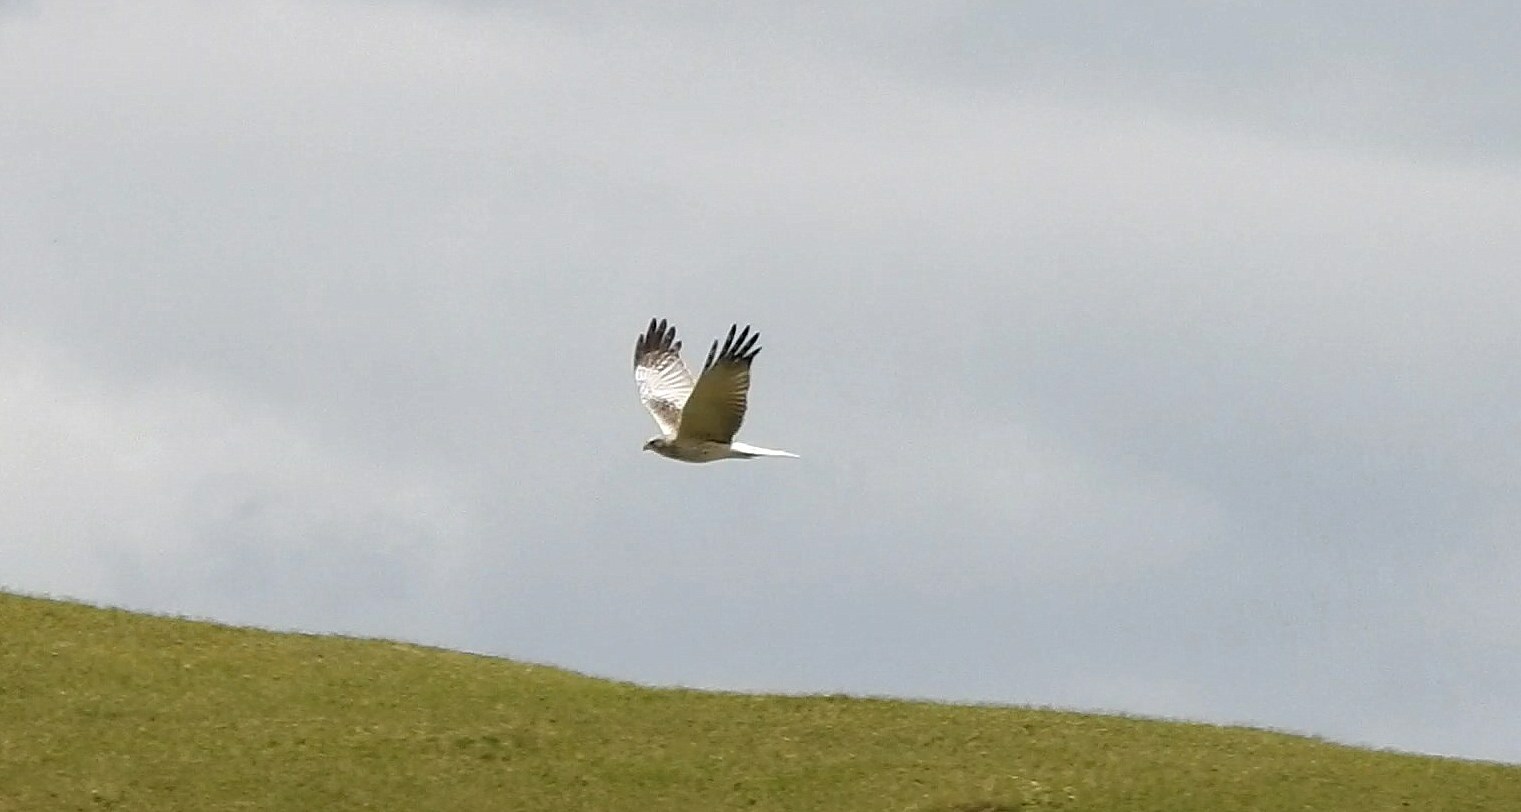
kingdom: Animalia
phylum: Chordata
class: Aves
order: Accipitriformes
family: Accipitridae
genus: Circus
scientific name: Circus spilonotus
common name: Eastern marsh-harrier
